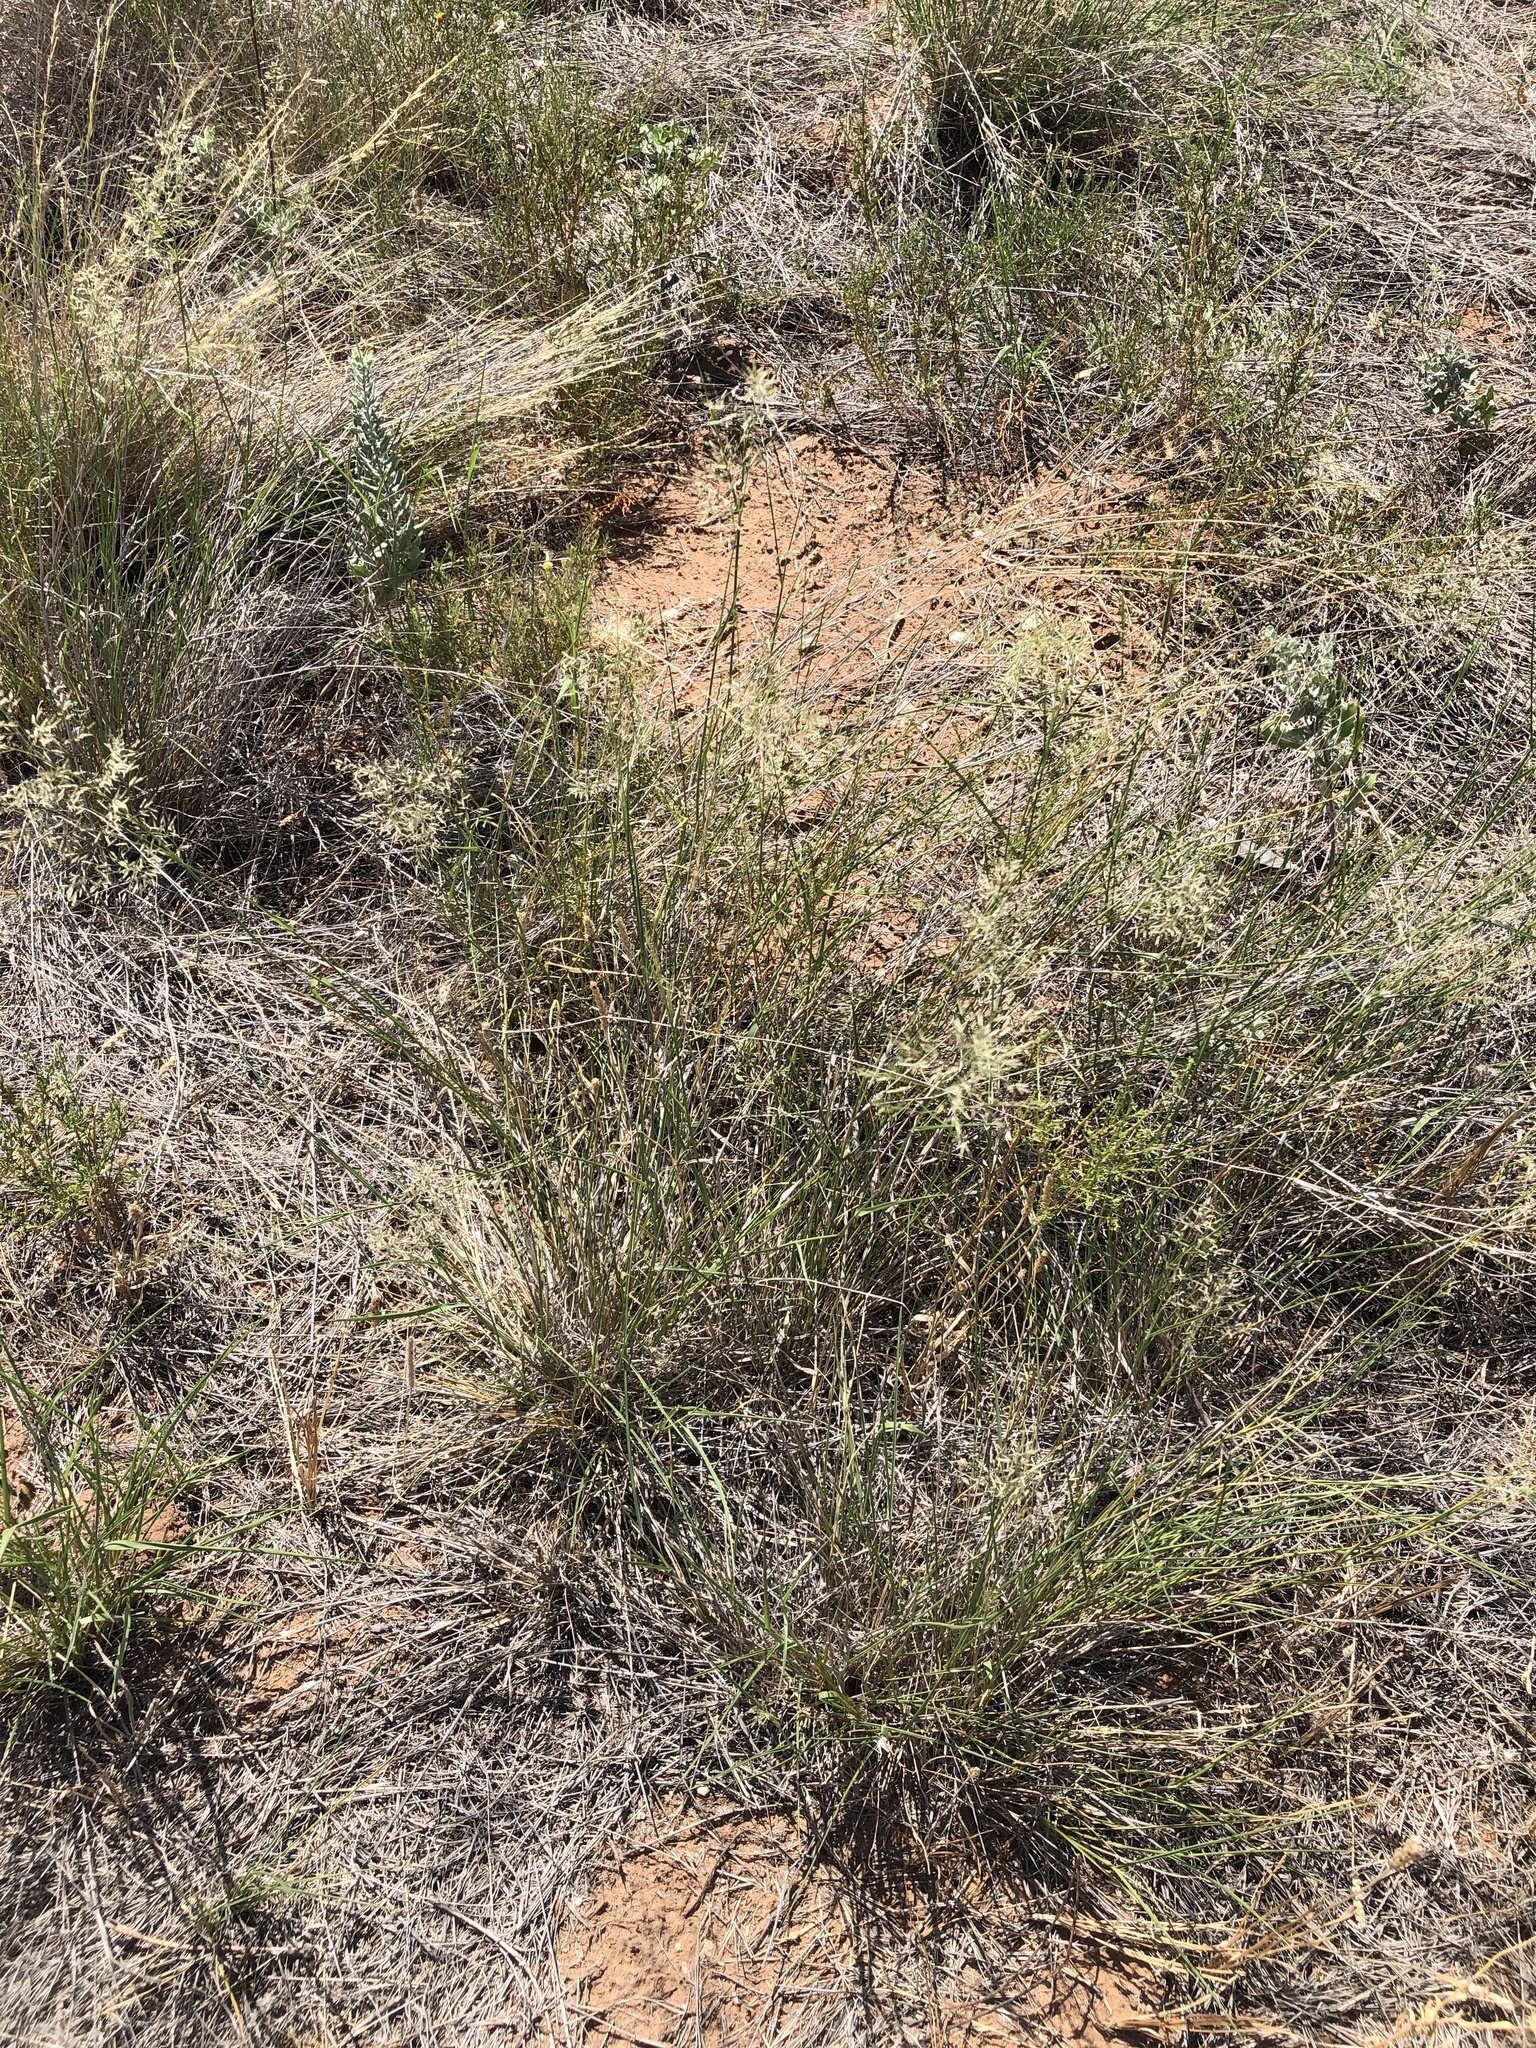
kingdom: Plantae
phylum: Tracheophyta
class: Liliopsida
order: Poales
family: Poaceae
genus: Eragrostis
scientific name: Eragrostis lehmanniana
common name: Lehmann lovegrass
